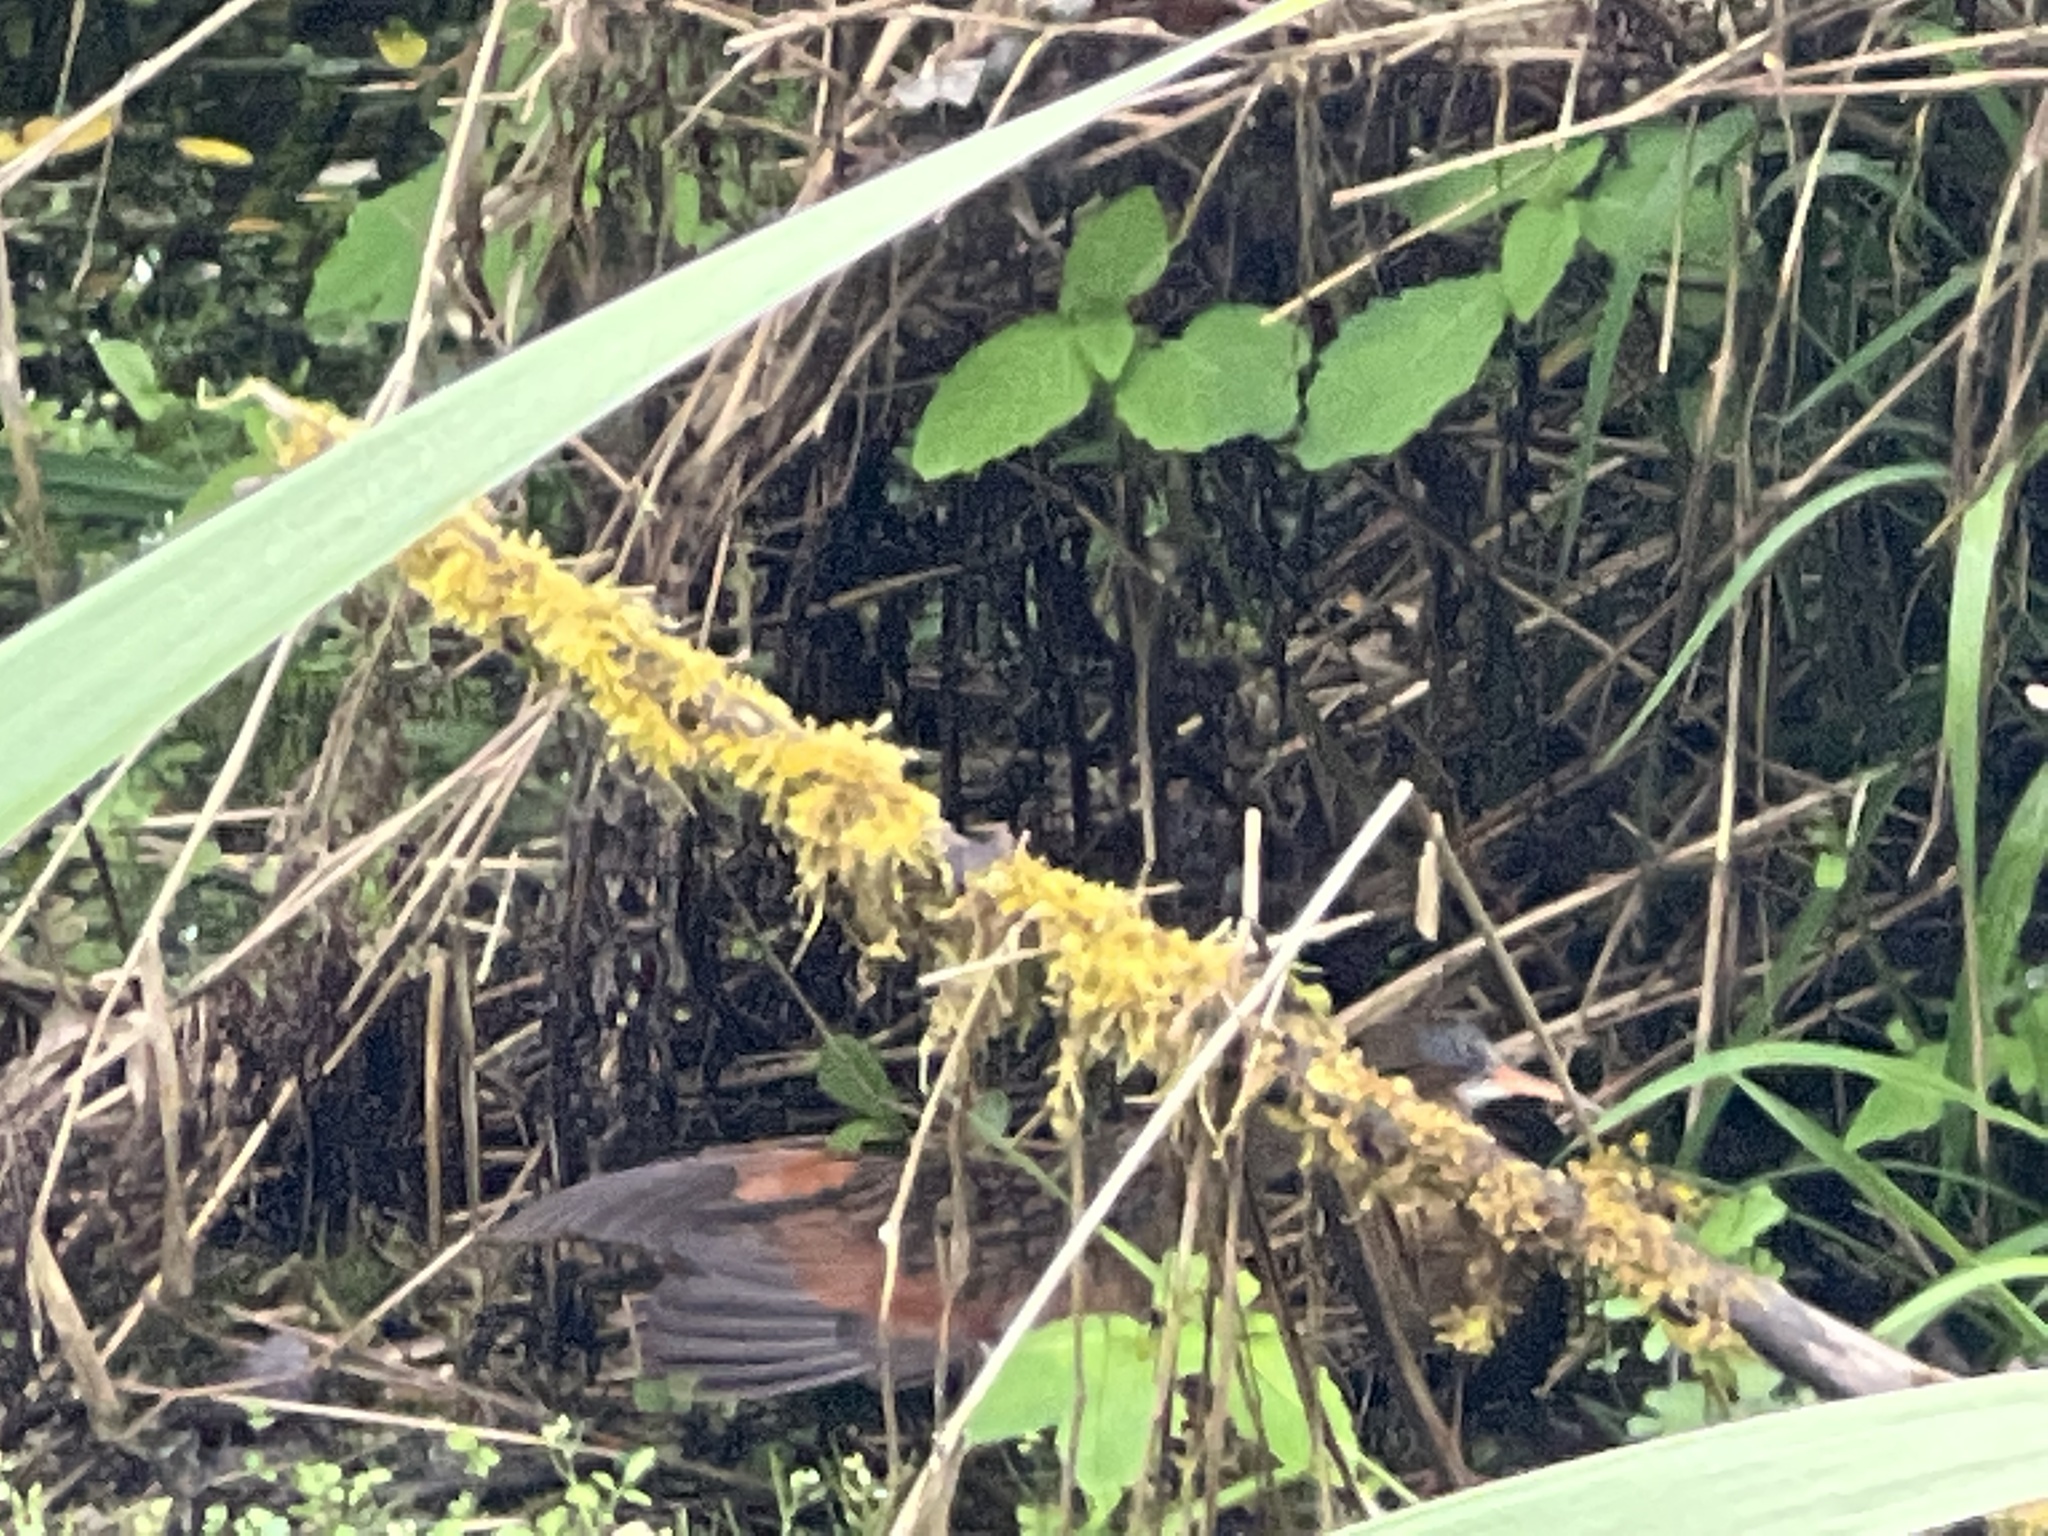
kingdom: Animalia
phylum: Chordata
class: Aves
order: Gruiformes
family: Rallidae
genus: Rallus
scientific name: Rallus limicola
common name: Virginia rail
